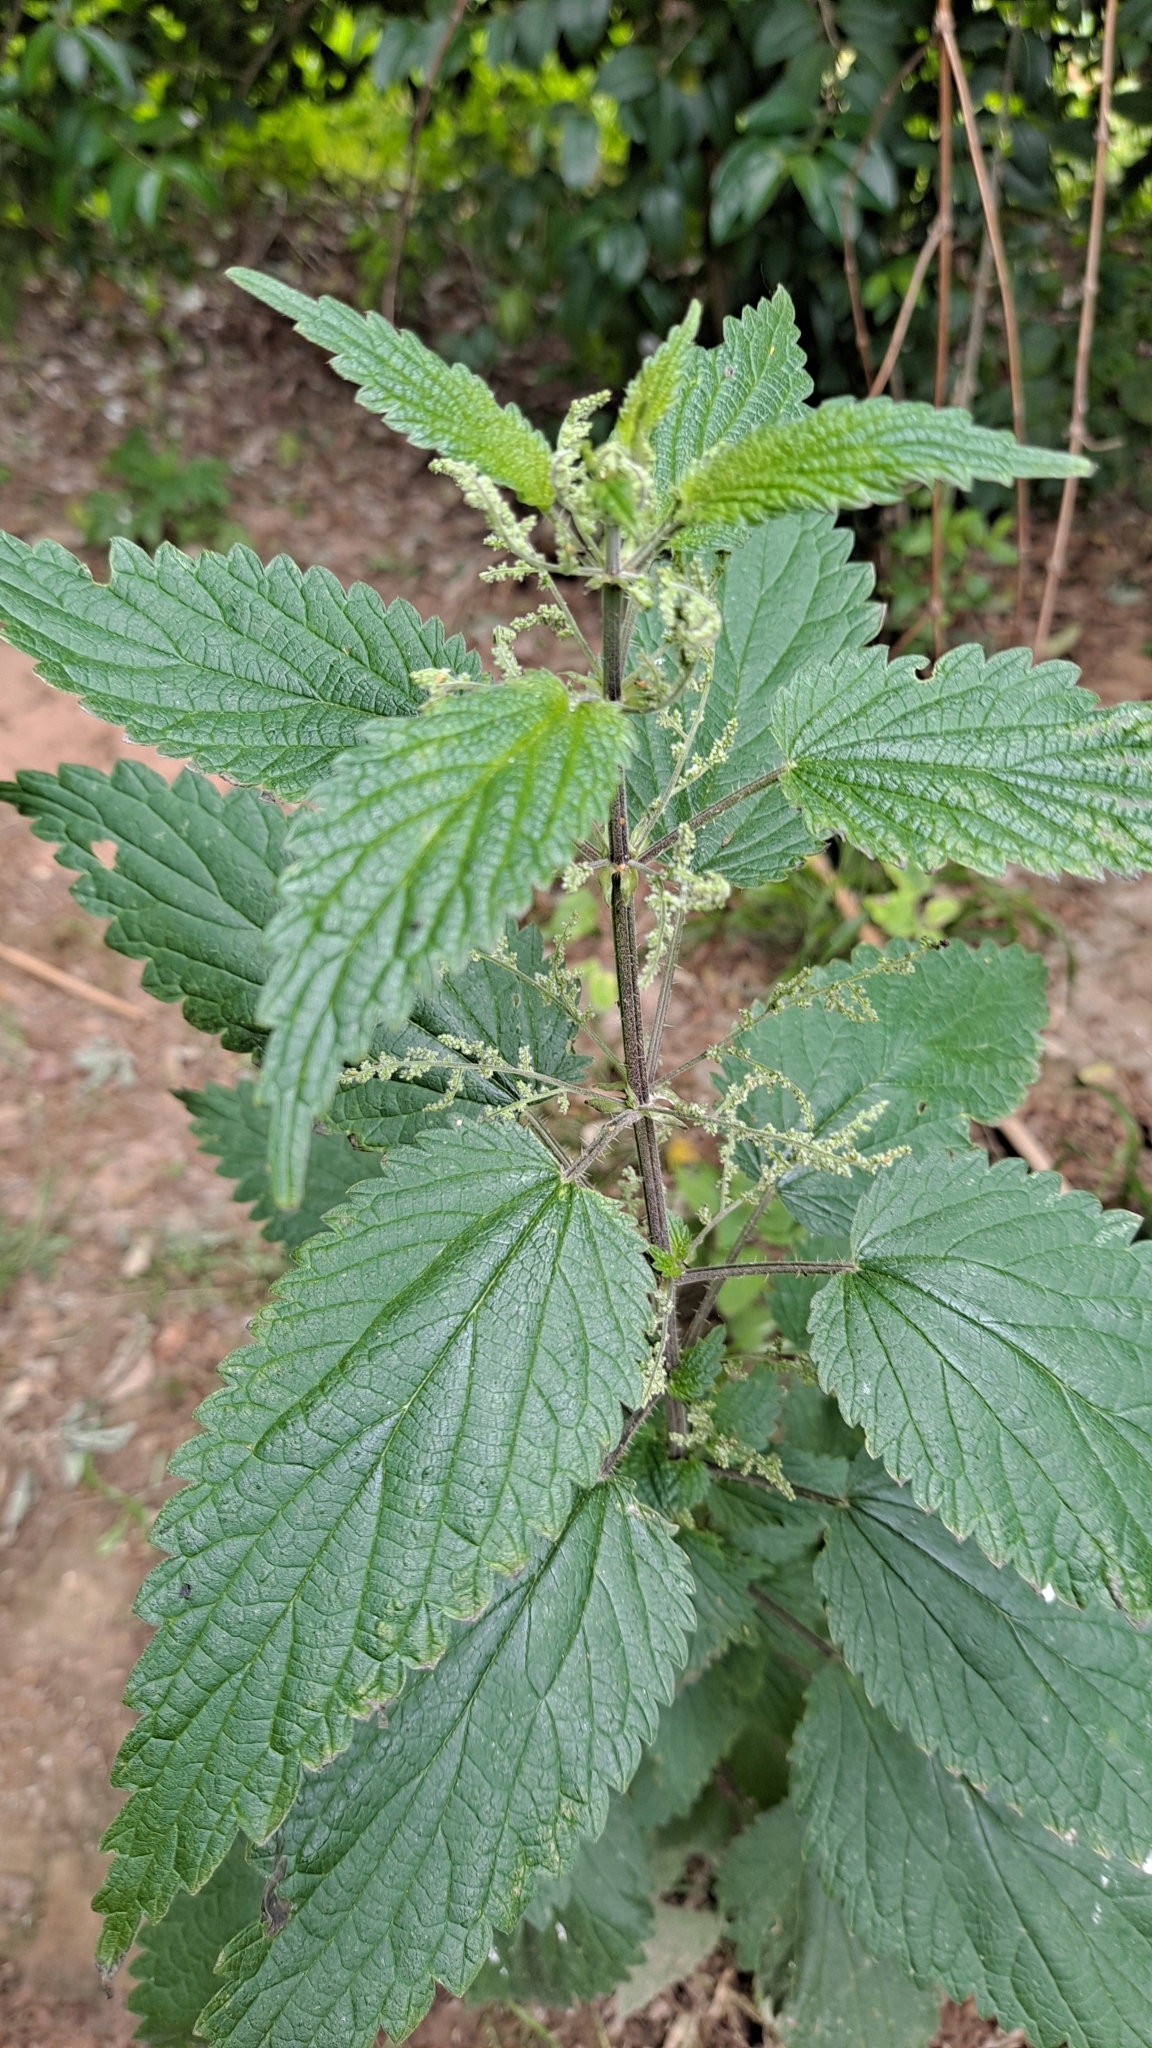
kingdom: Plantae
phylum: Tracheophyta
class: Magnoliopsida
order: Rosales
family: Urticaceae
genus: Urtica
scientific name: Urtica dioica
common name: Common nettle
